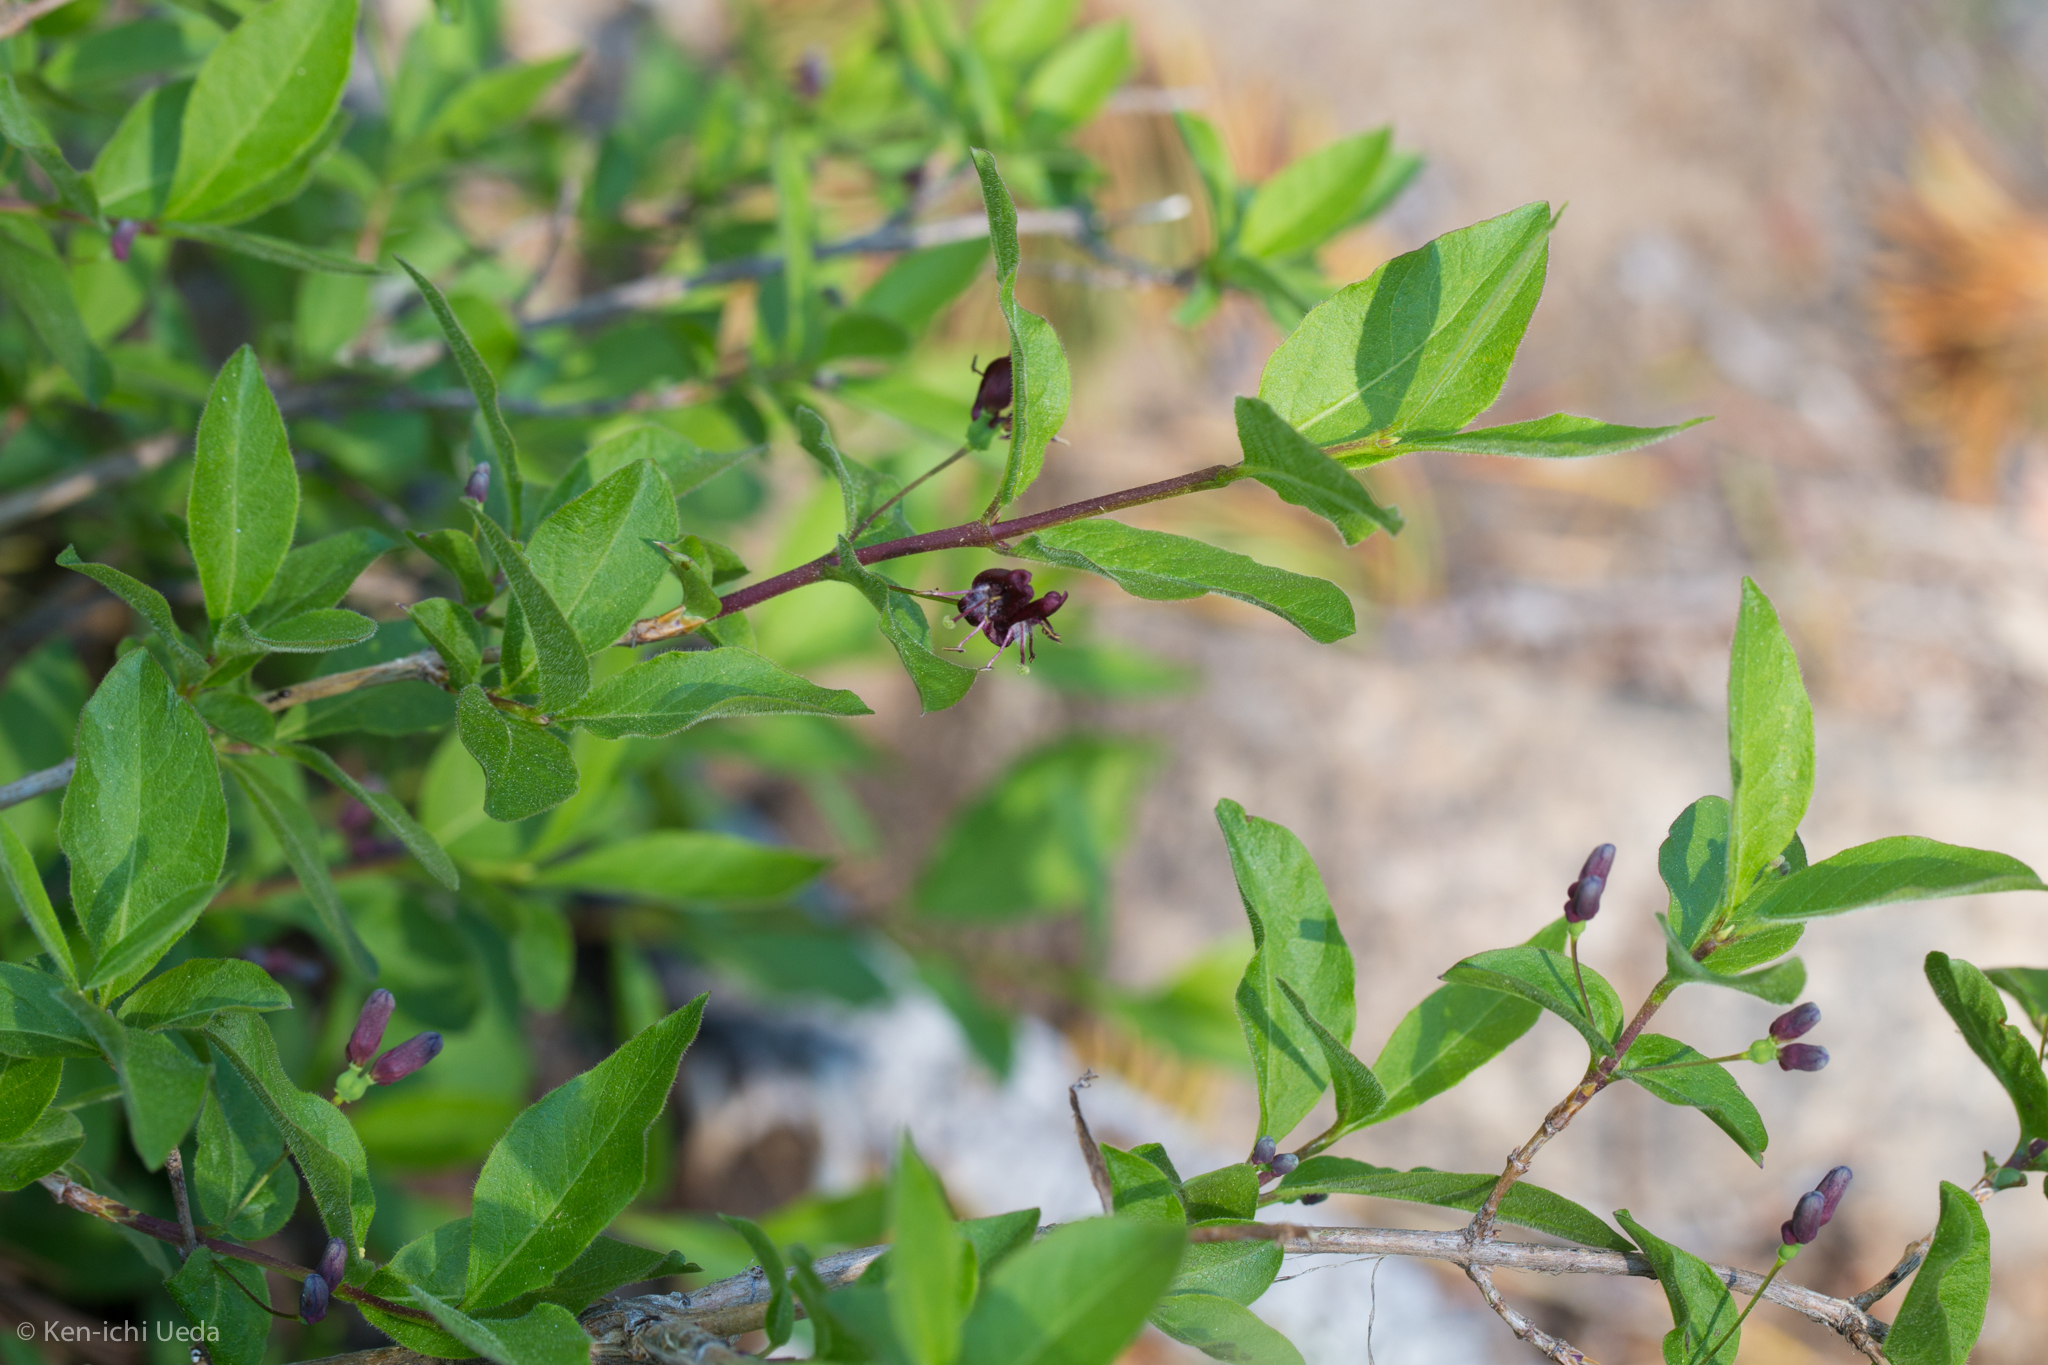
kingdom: Plantae
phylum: Tracheophyta
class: Magnoliopsida
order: Dipsacales
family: Caprifoliaceae
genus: Lonicera
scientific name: Lonicera conjugialis
